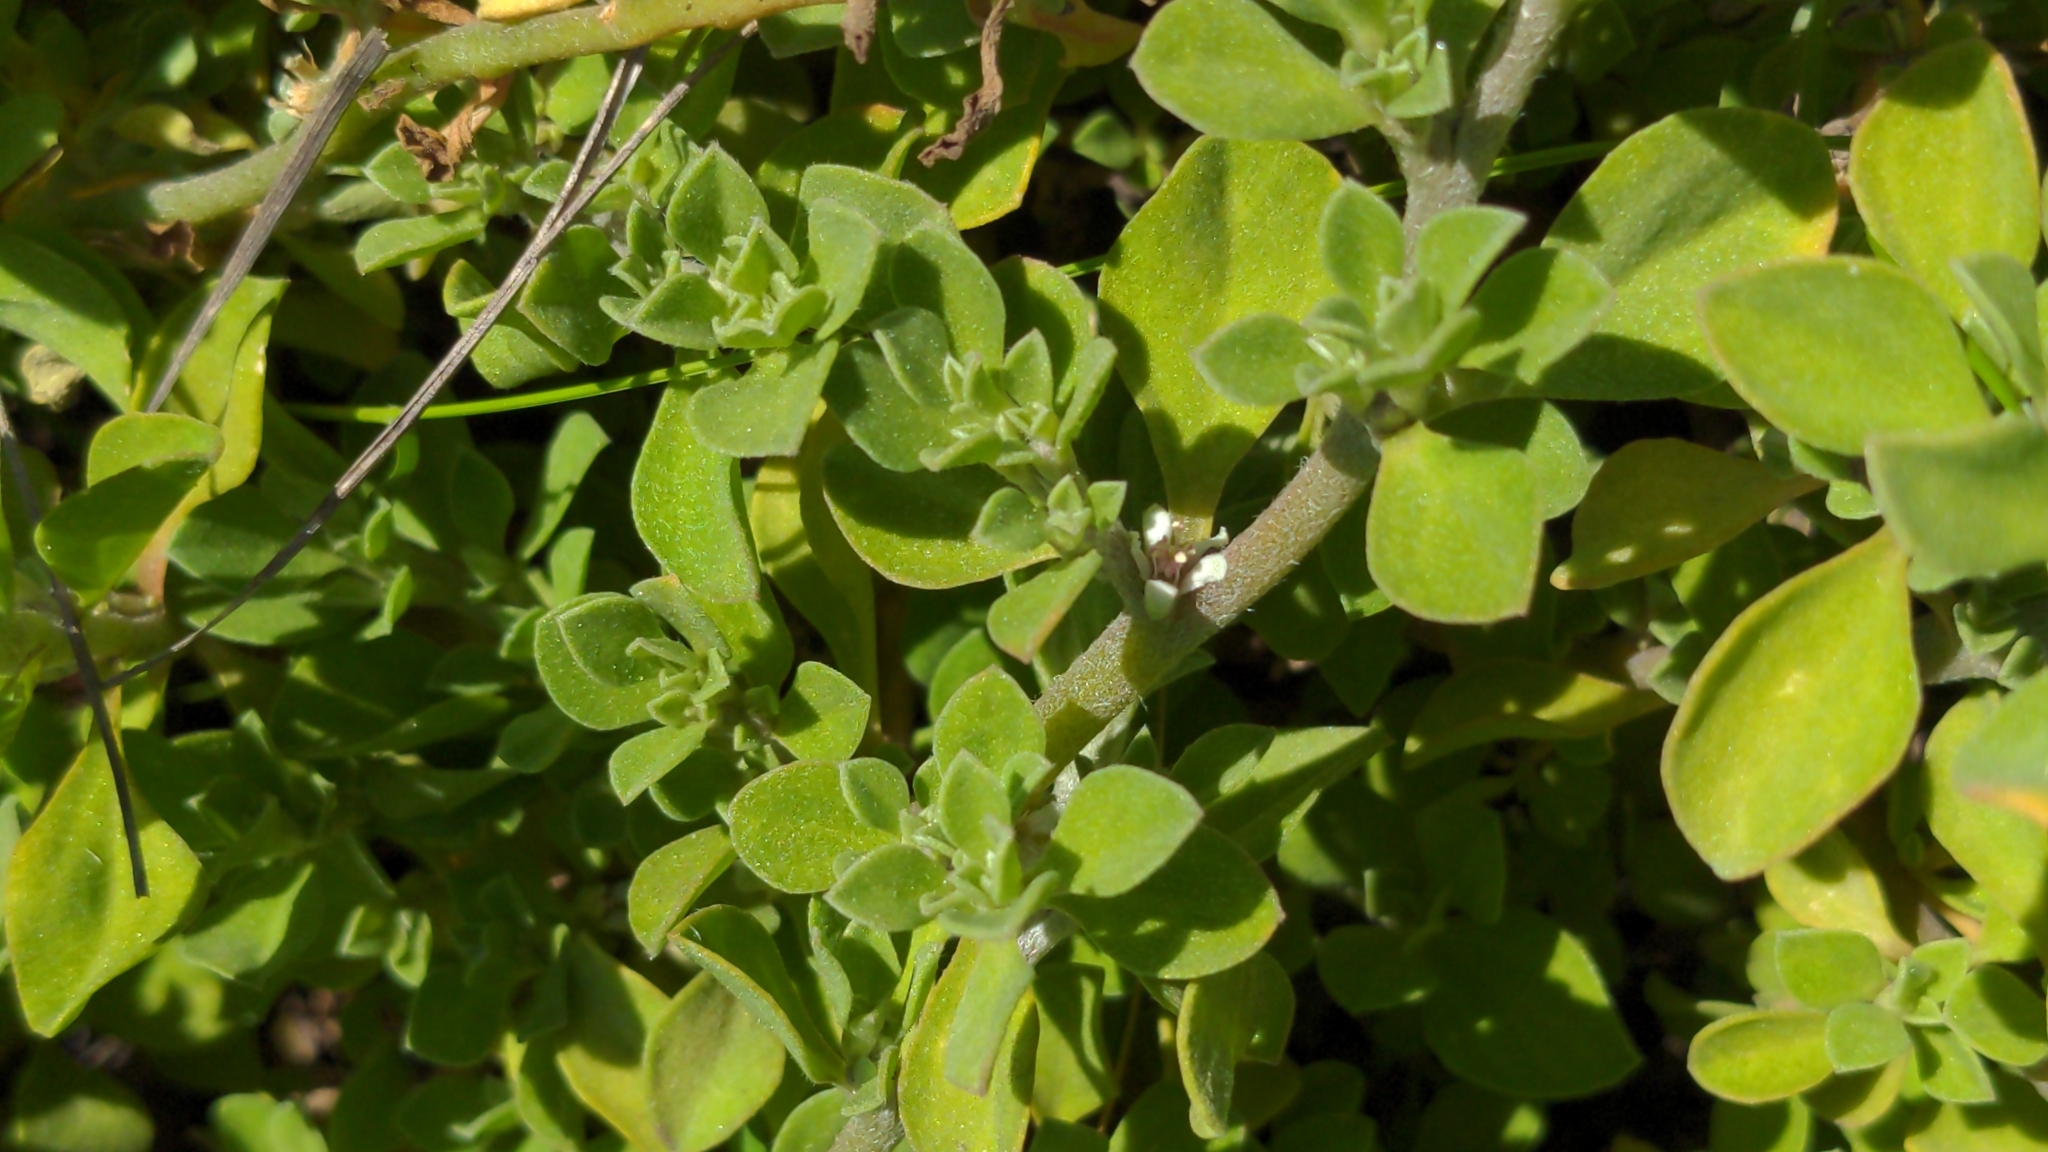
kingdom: Plantae
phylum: Tracheophyta
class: Magnoliopsida
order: Caryophyllales
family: Aizoaceae
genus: Aizoon
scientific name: Aizoon pubescens
